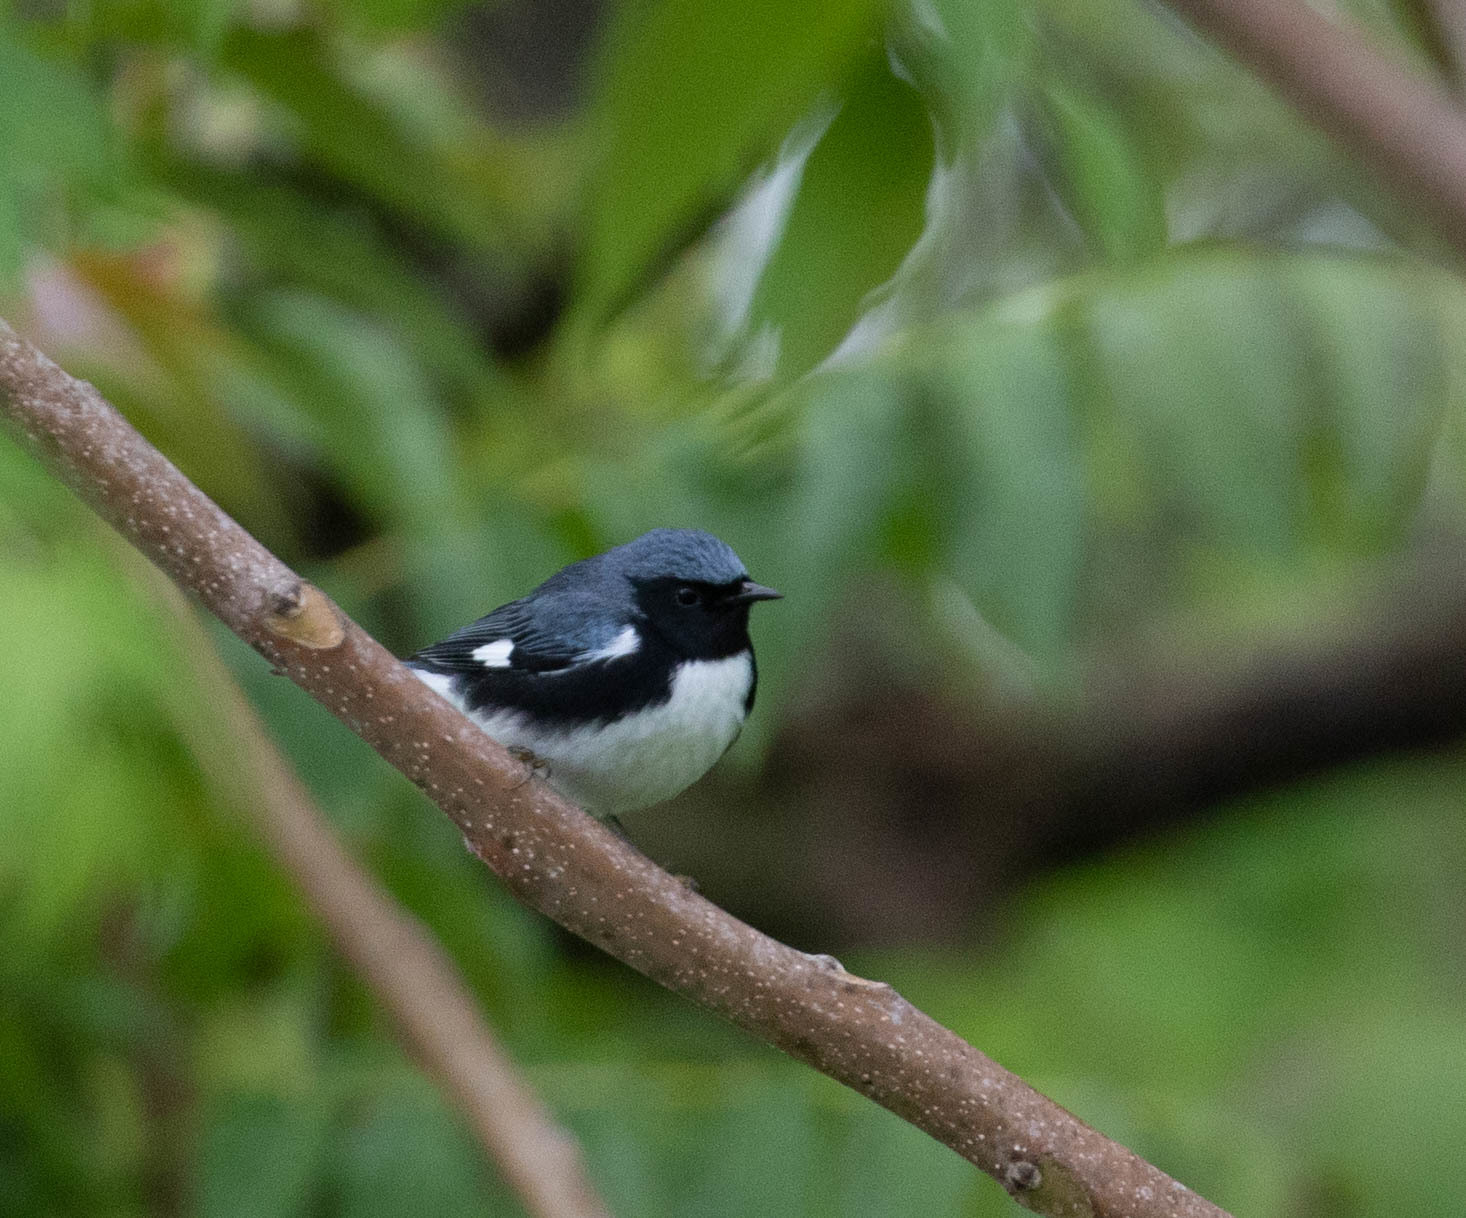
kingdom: Animalia
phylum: Chordata
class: Aves
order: Passeriformes
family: Parulidae
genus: Setophaga
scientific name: Setophaga caerulescens
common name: Black-throated blue warbler
